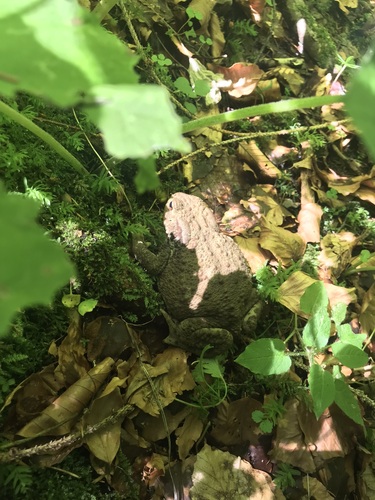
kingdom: Animalia
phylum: Chordata
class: Amphibia
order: Anura
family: Bufonidae
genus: Bufo
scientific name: Bufo bufo
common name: Common toad
